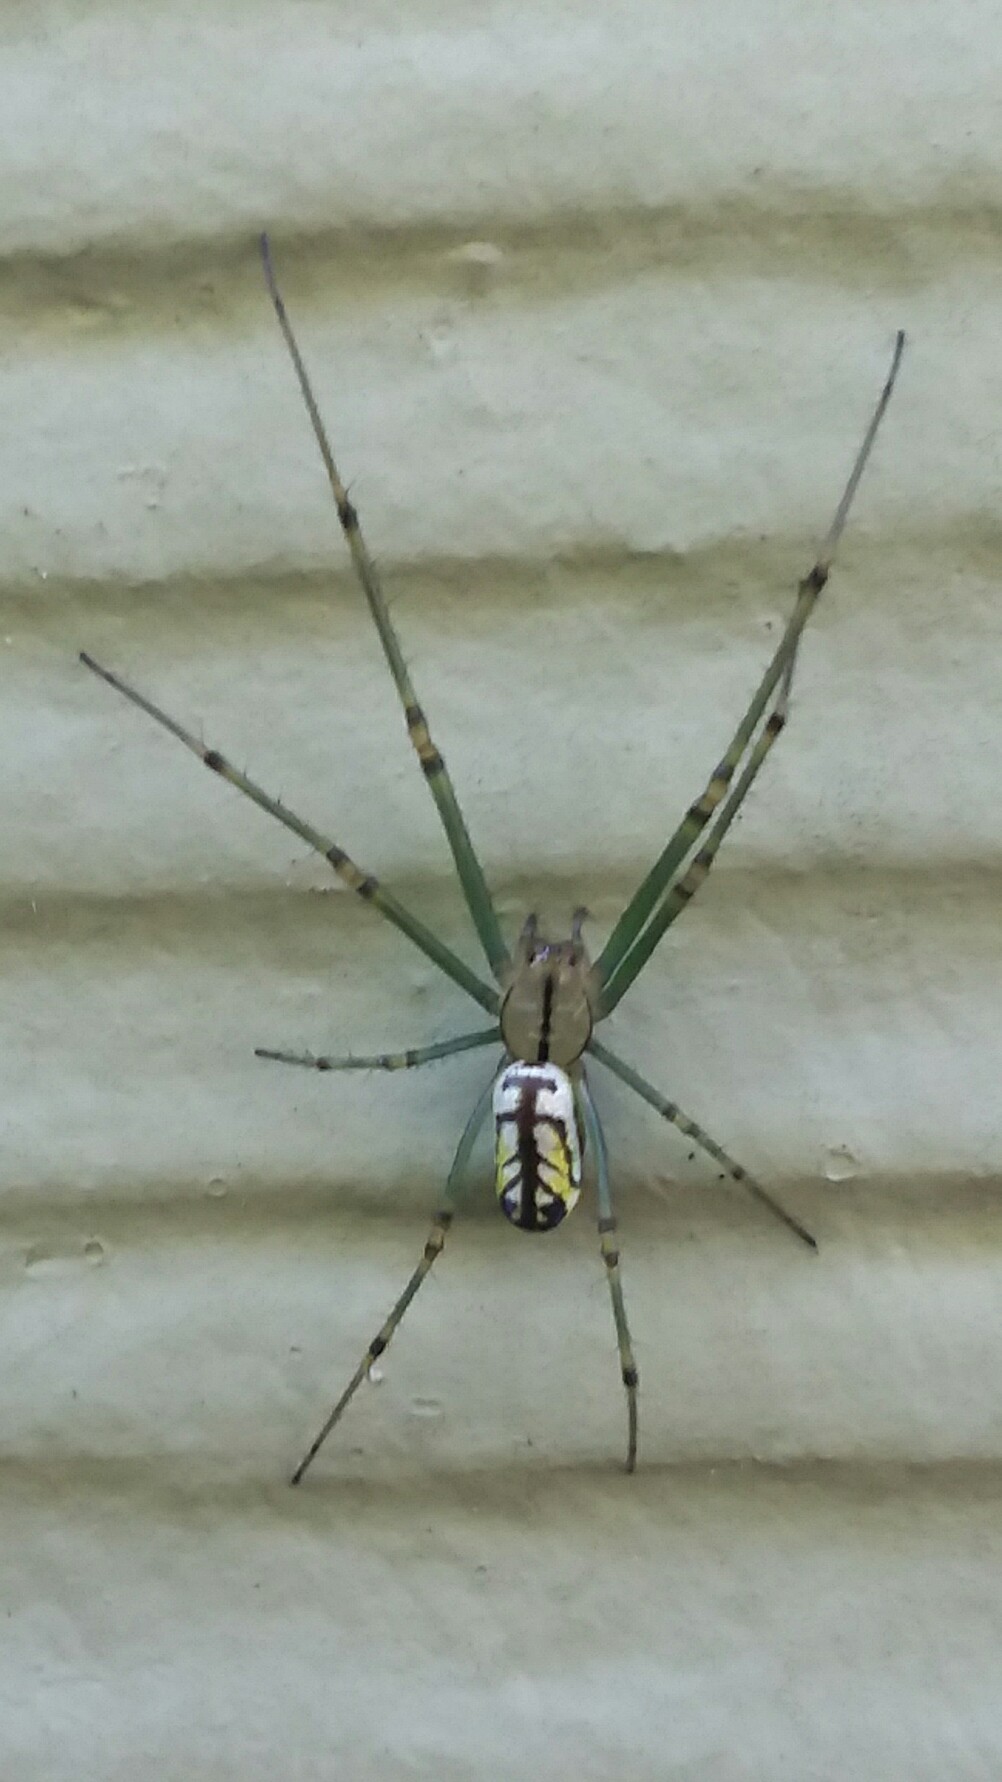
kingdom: Animalia
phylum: Arthropoda
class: Arachnida
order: Araneae
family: Tetragnathidae
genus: Leucauge
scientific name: Leucauge venusta
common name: Longjawed orb weavers
